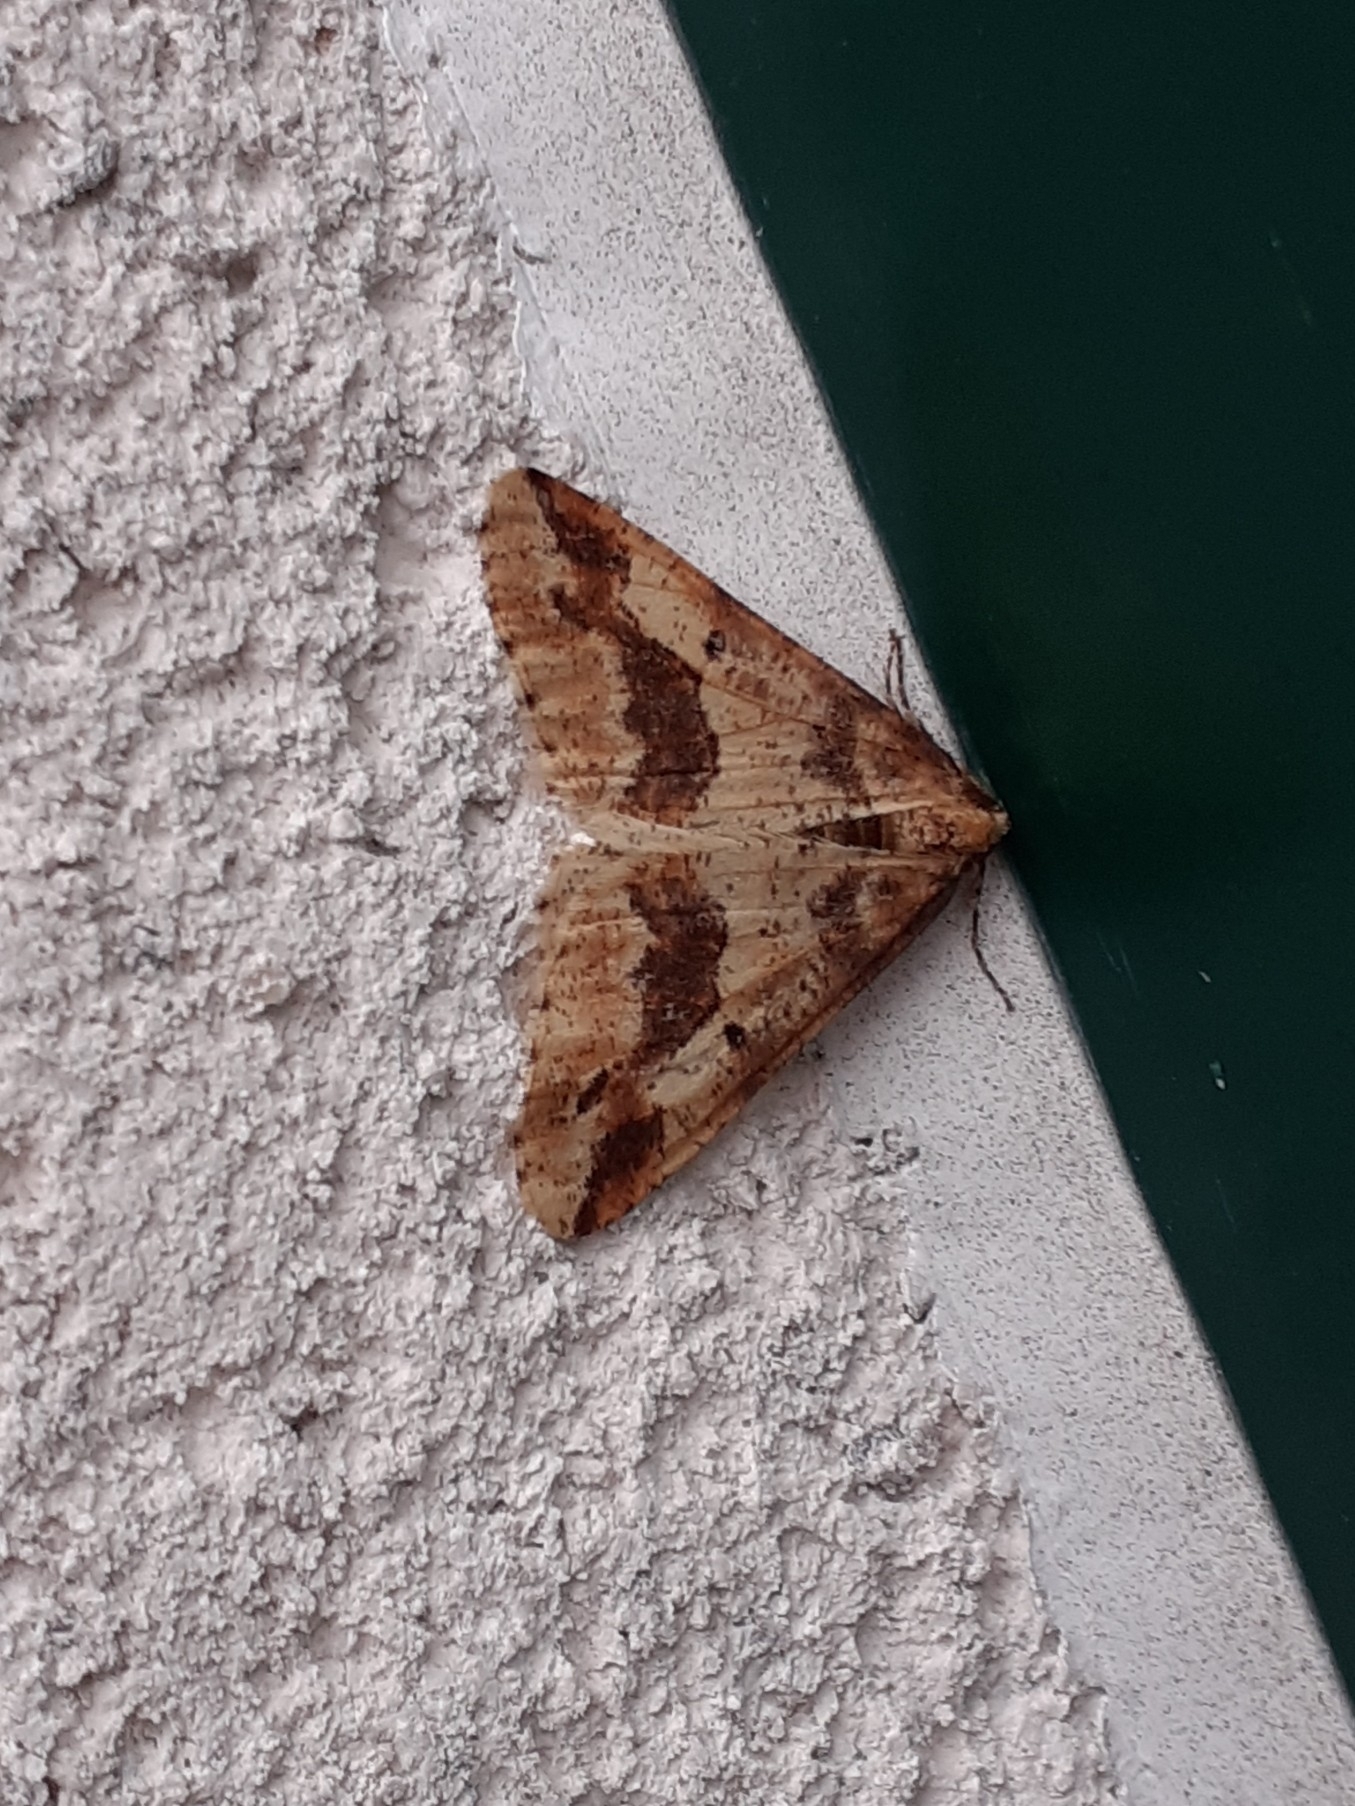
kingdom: Animalia
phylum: Arthropoda
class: Insecta
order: Lepidoptera
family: Geometridae
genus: Erannis
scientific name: Erannis defoliaria
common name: Mottled umber
